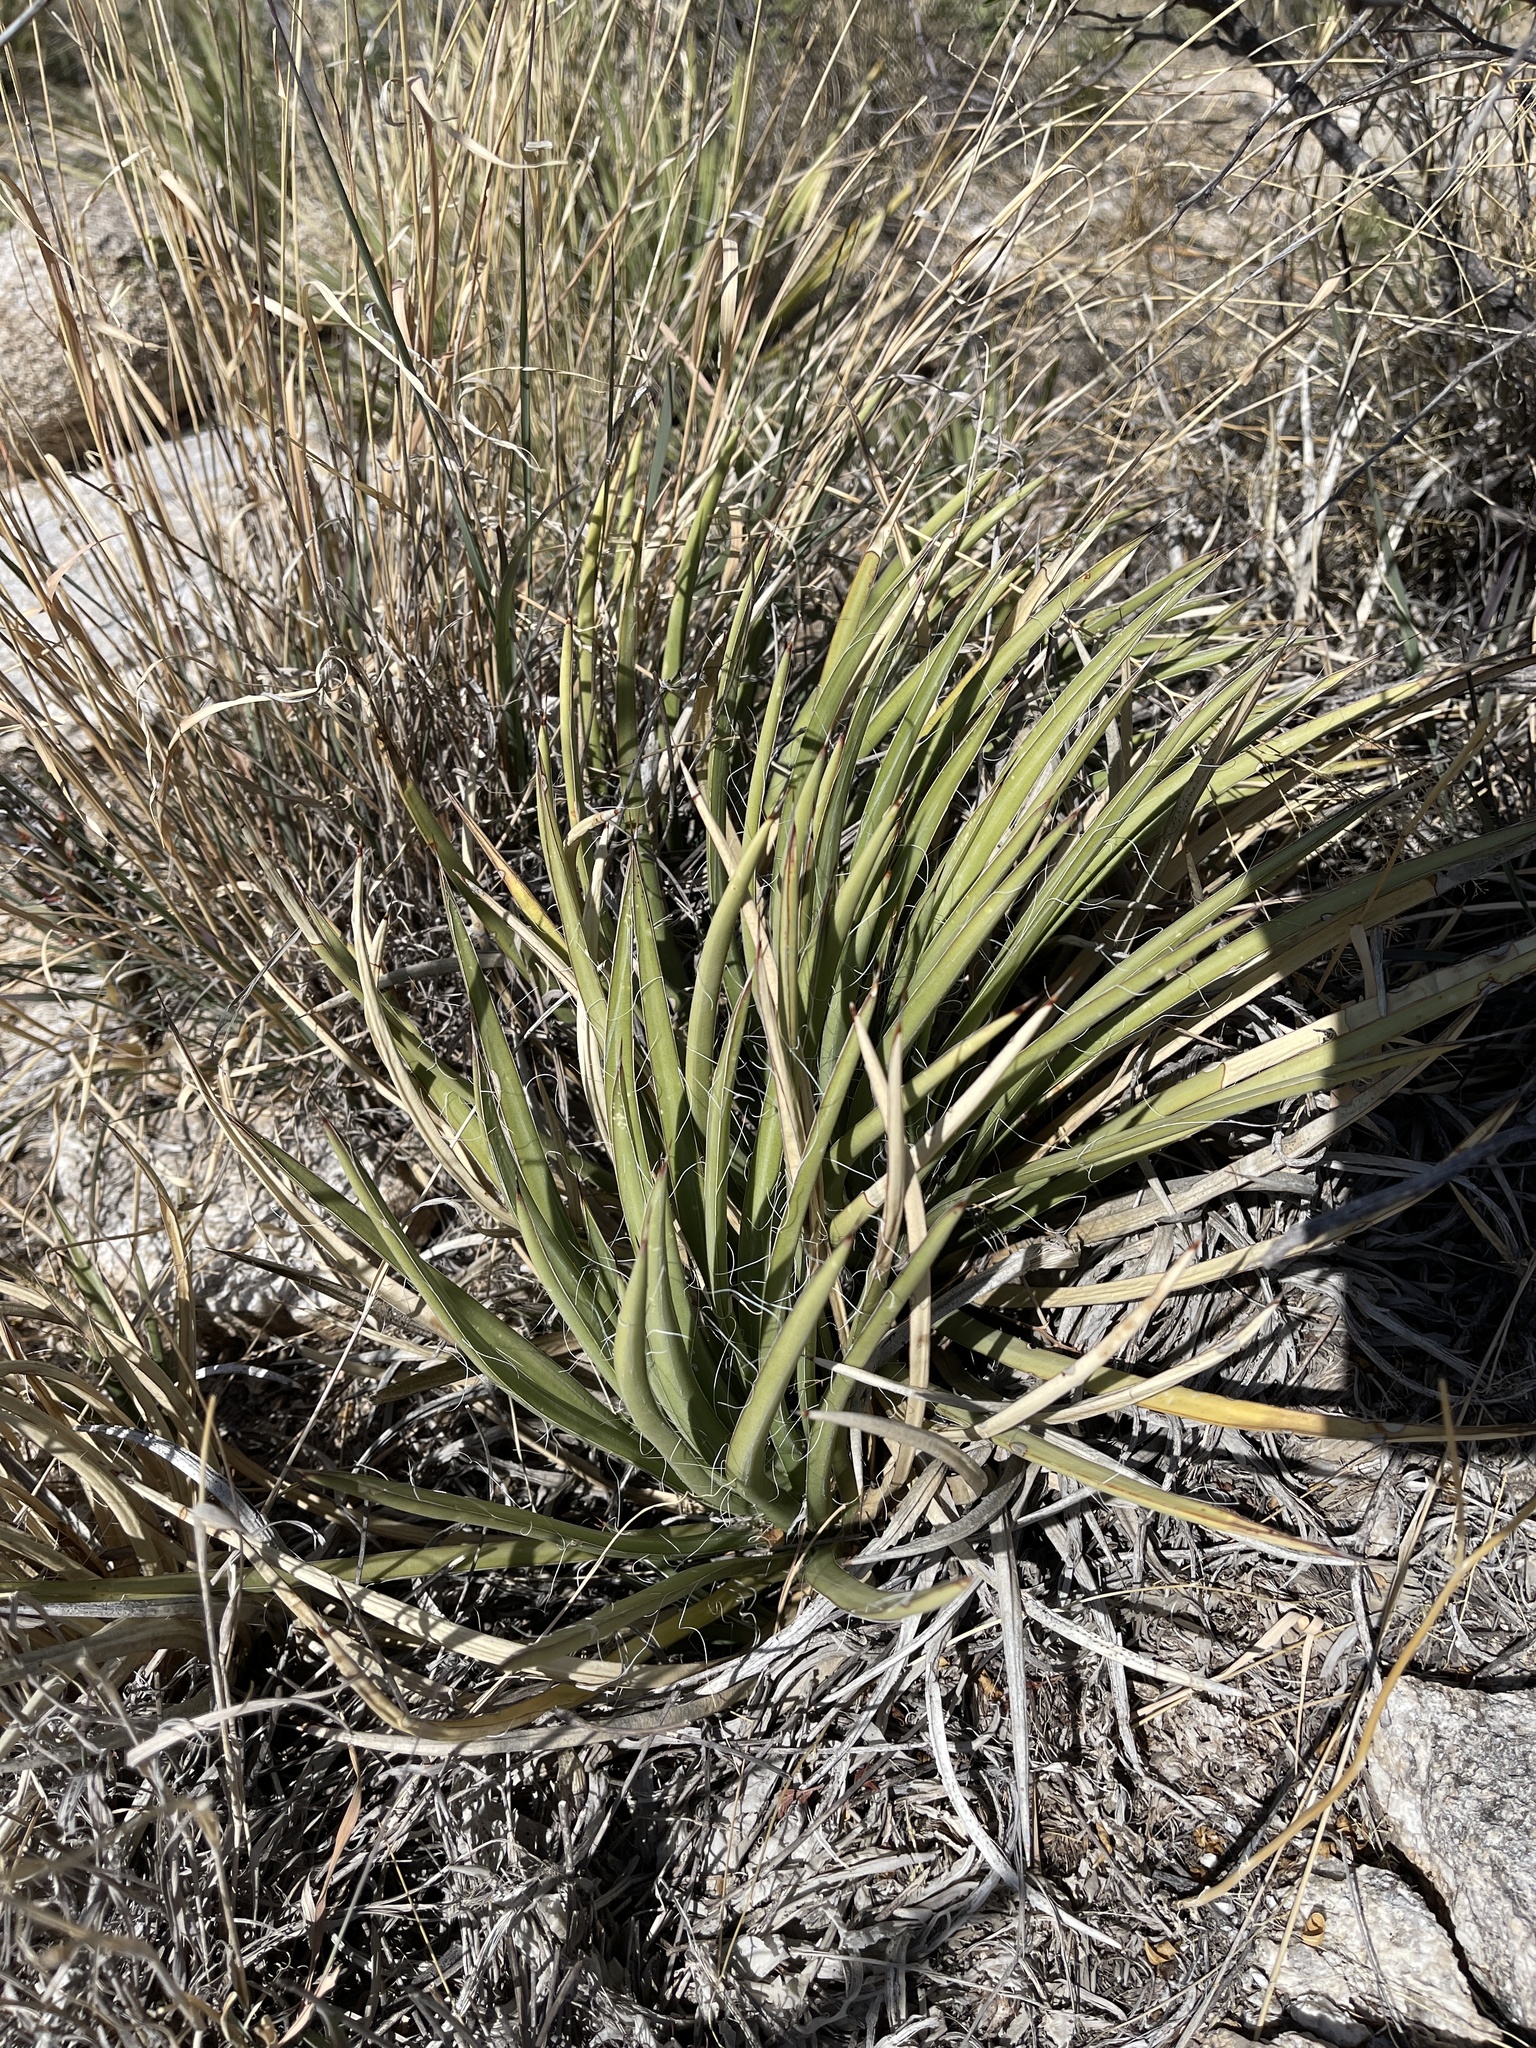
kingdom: Plantae
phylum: Tracheophyta
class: Liliopsida
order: Asparagales
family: Asparagaceae
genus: Agave
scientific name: Agave schottii
